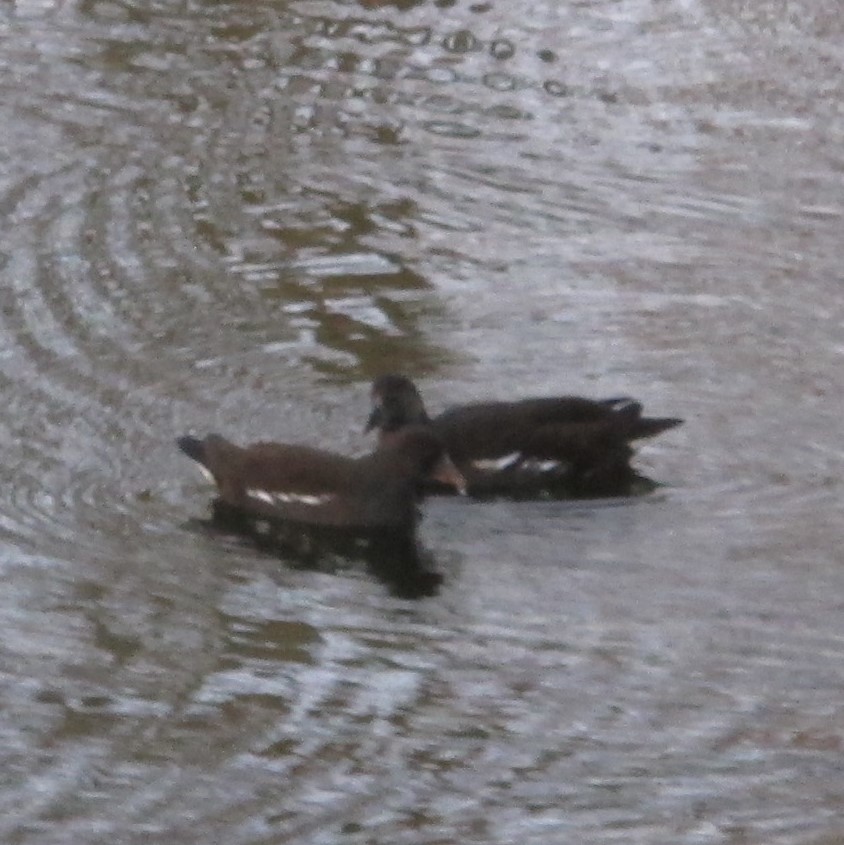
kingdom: Animalia
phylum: Chordata
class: Aves
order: Gruiformes
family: Rallidae
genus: Gallinula
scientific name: Gallinula chloropus
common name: Common moorhen
